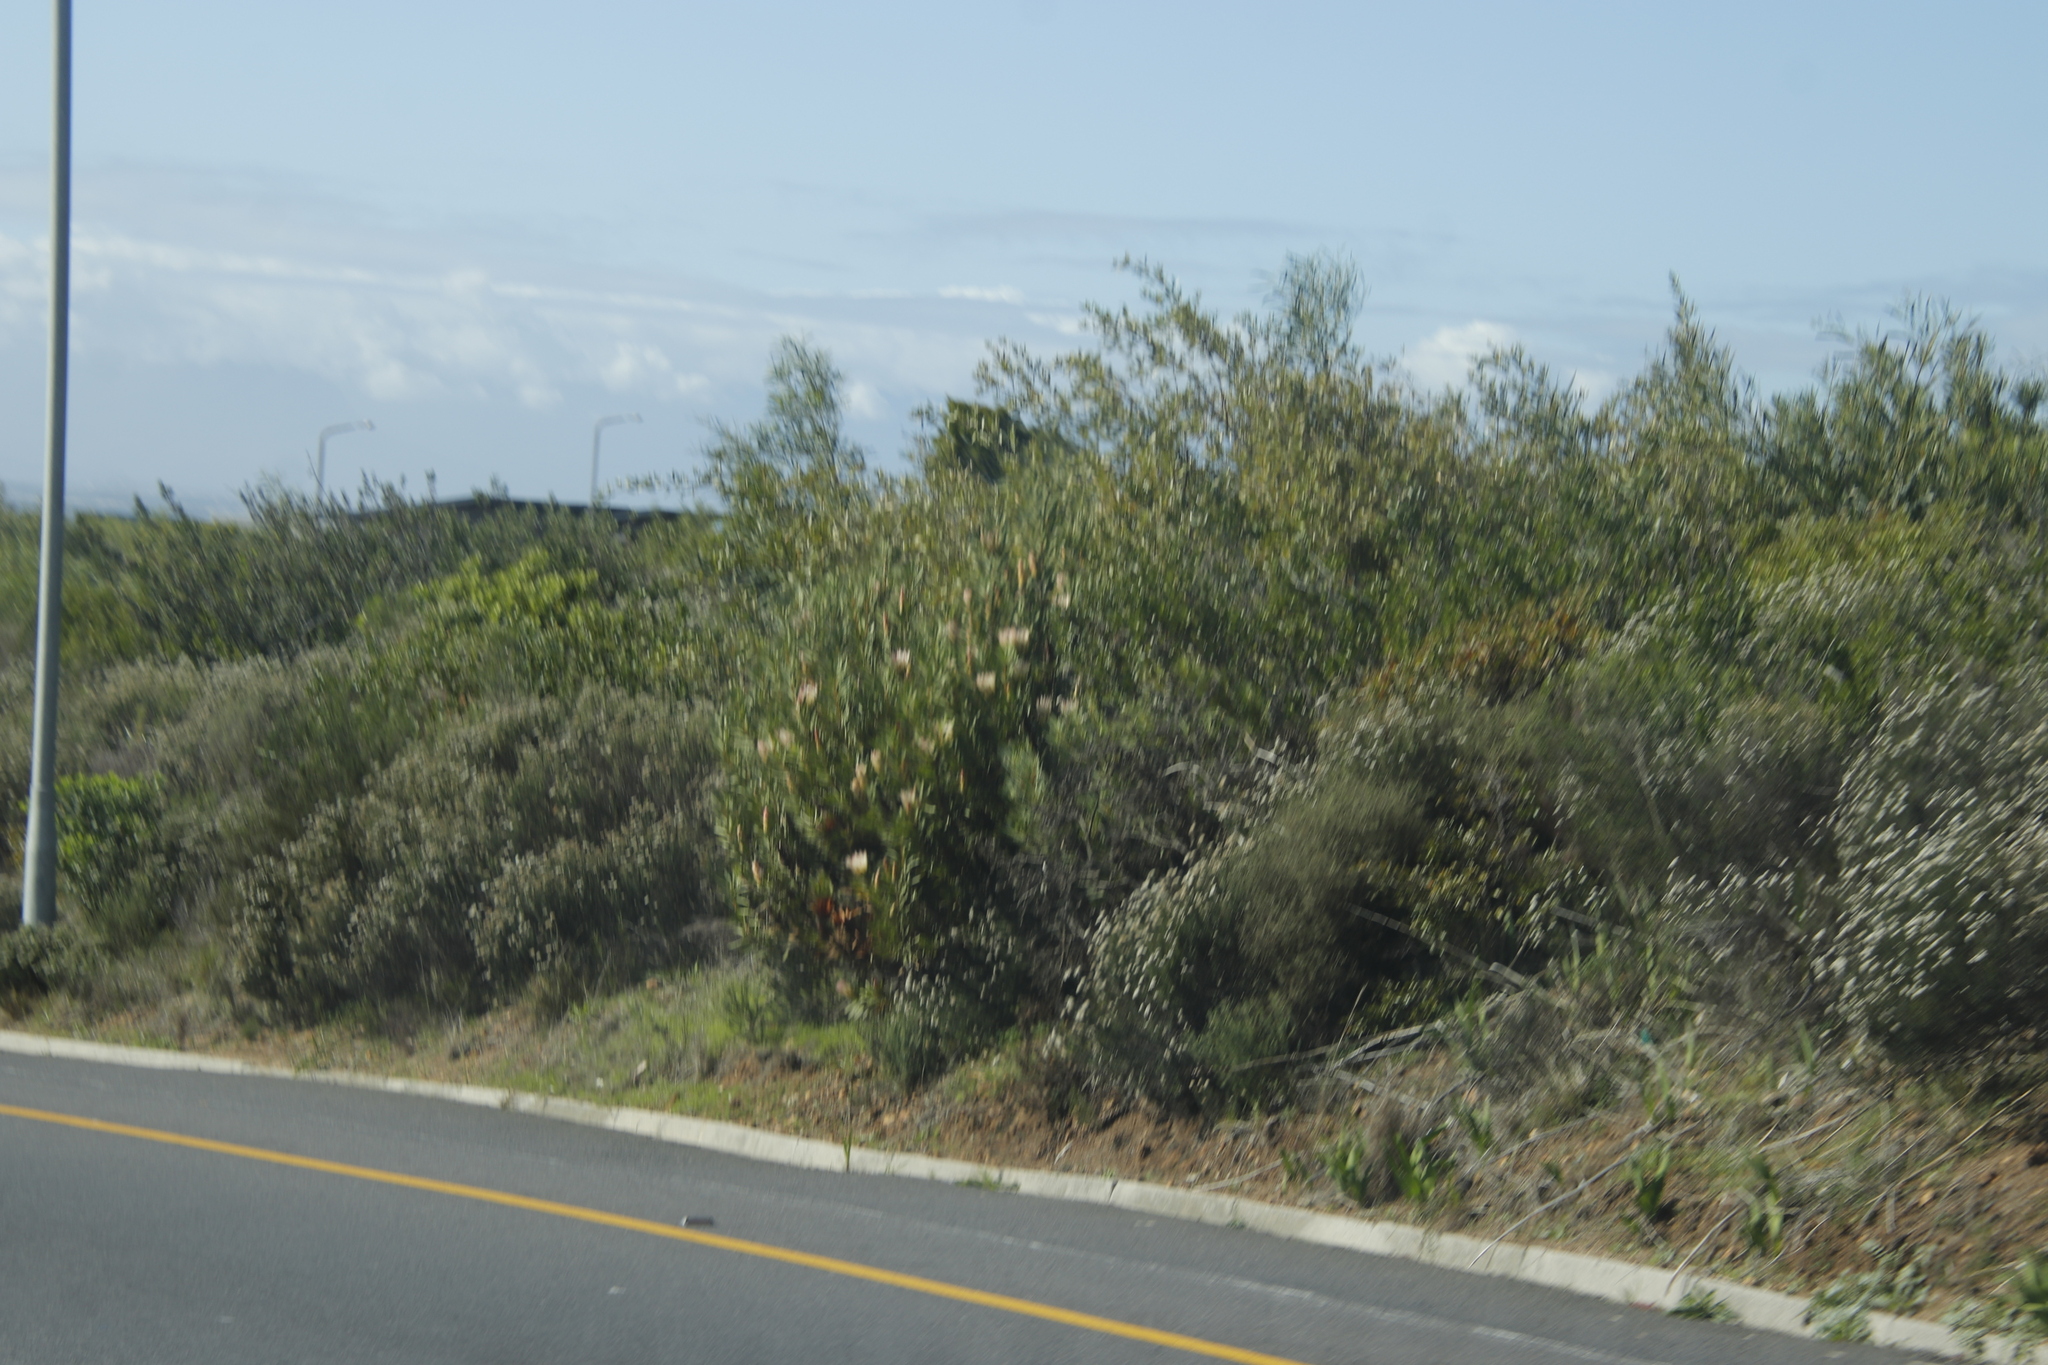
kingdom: Plantae
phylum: Tracheophyta
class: Magnoliopsida
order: Fabales
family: Fabaceae
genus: Acacia
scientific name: Acacia saligna
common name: Orange wattle
